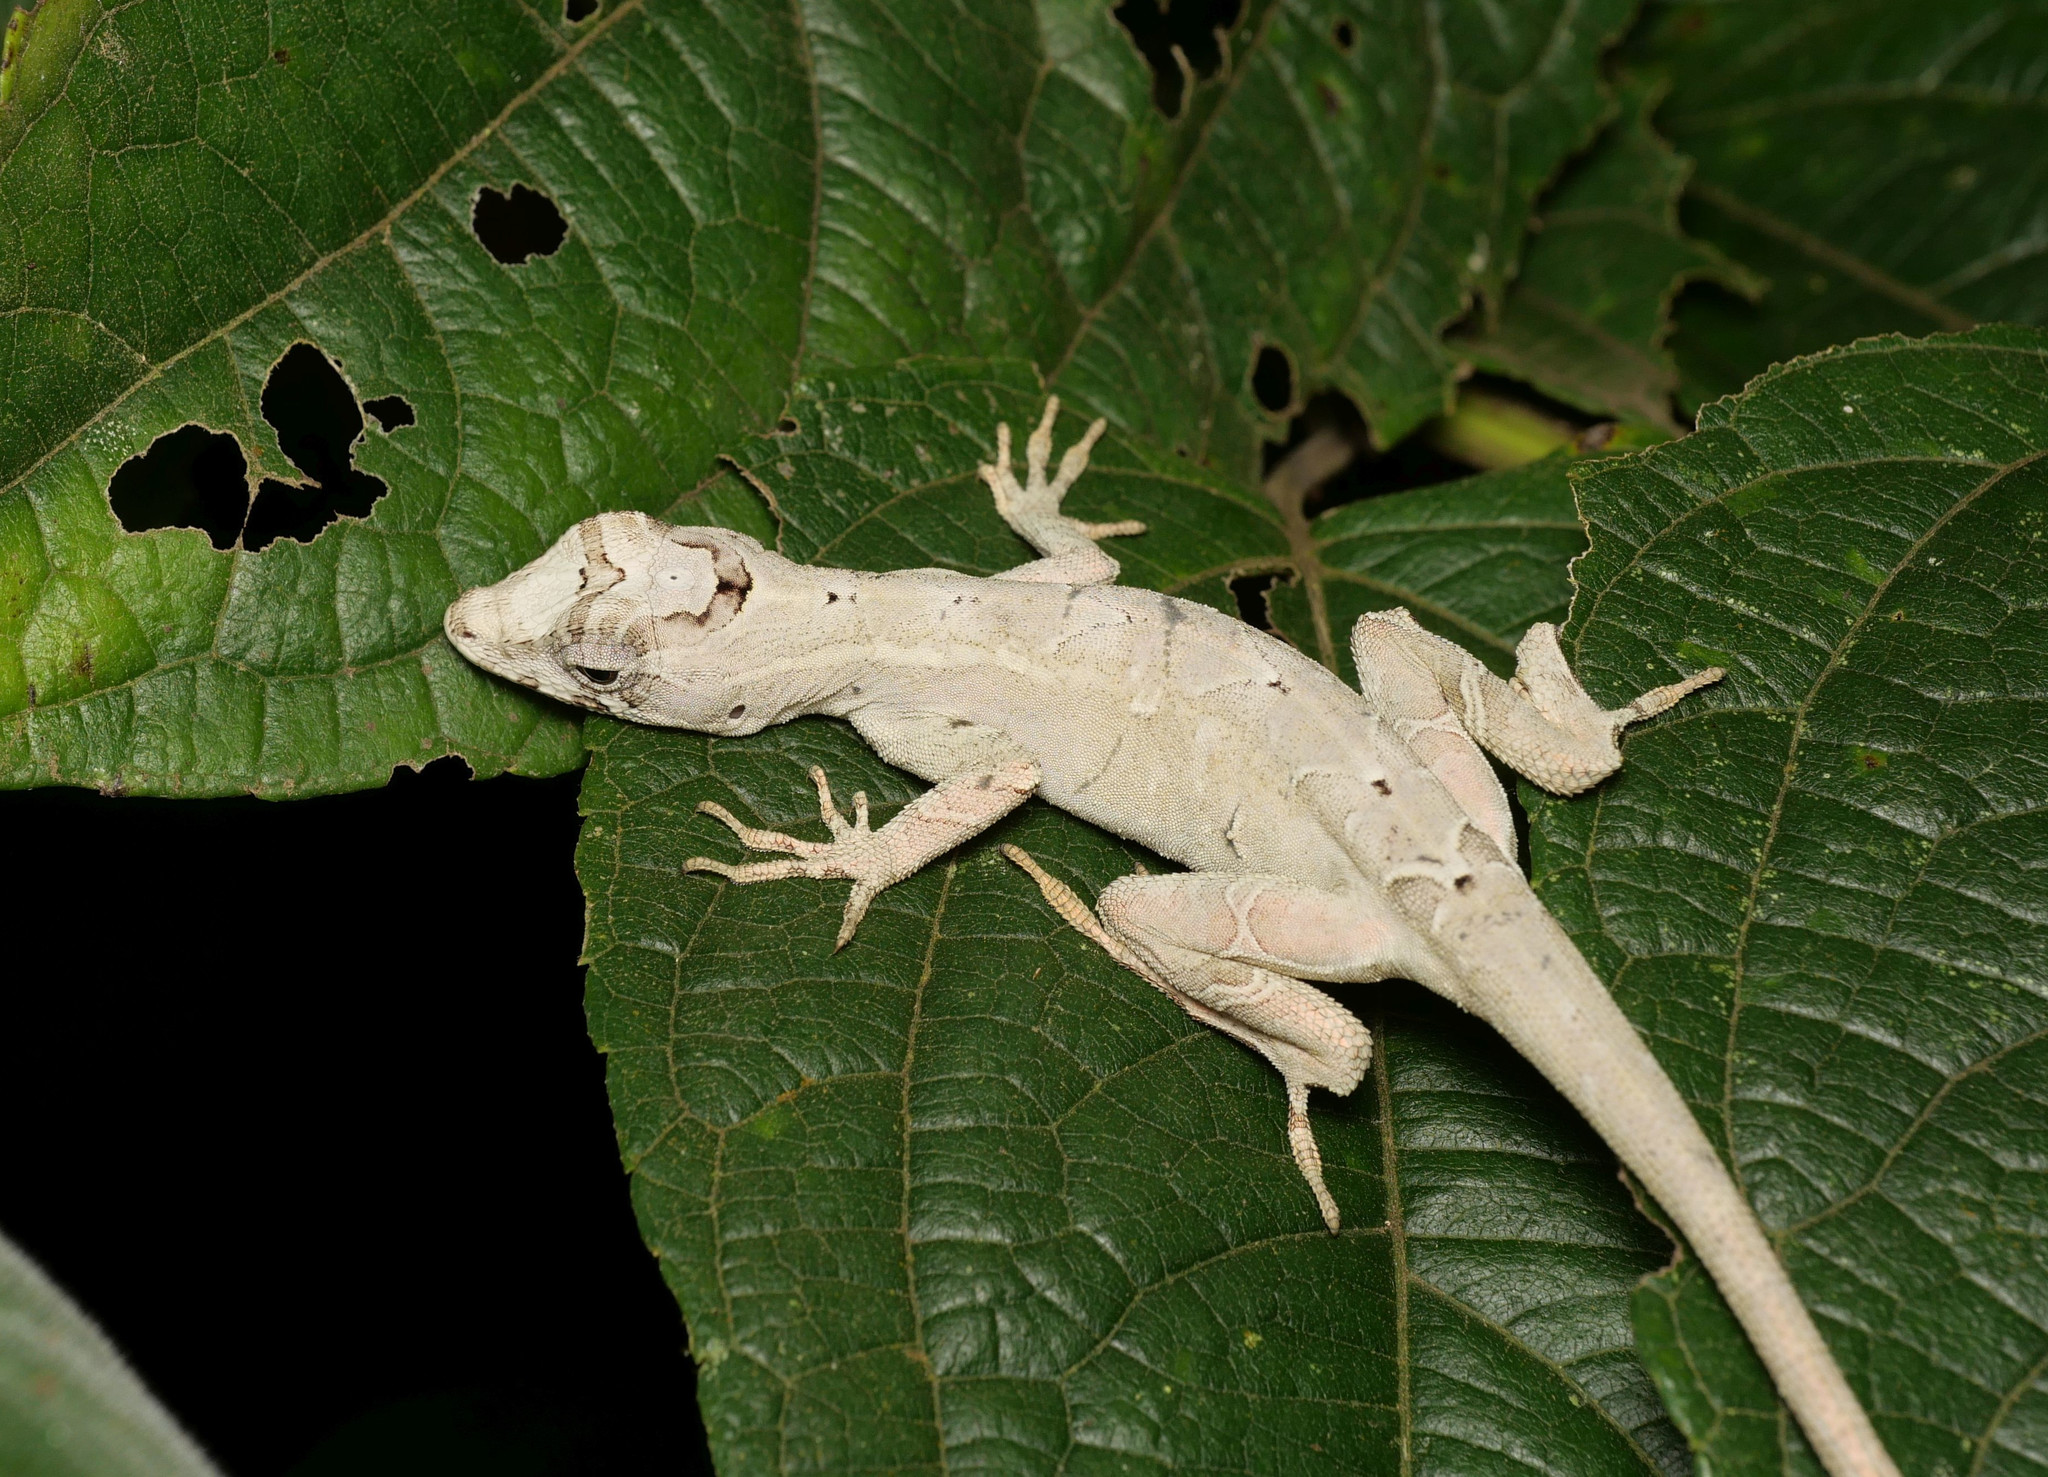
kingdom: Animalia
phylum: Chordata
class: Squamata
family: Dactyloidae
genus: Anolis
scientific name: Anolis lyra
